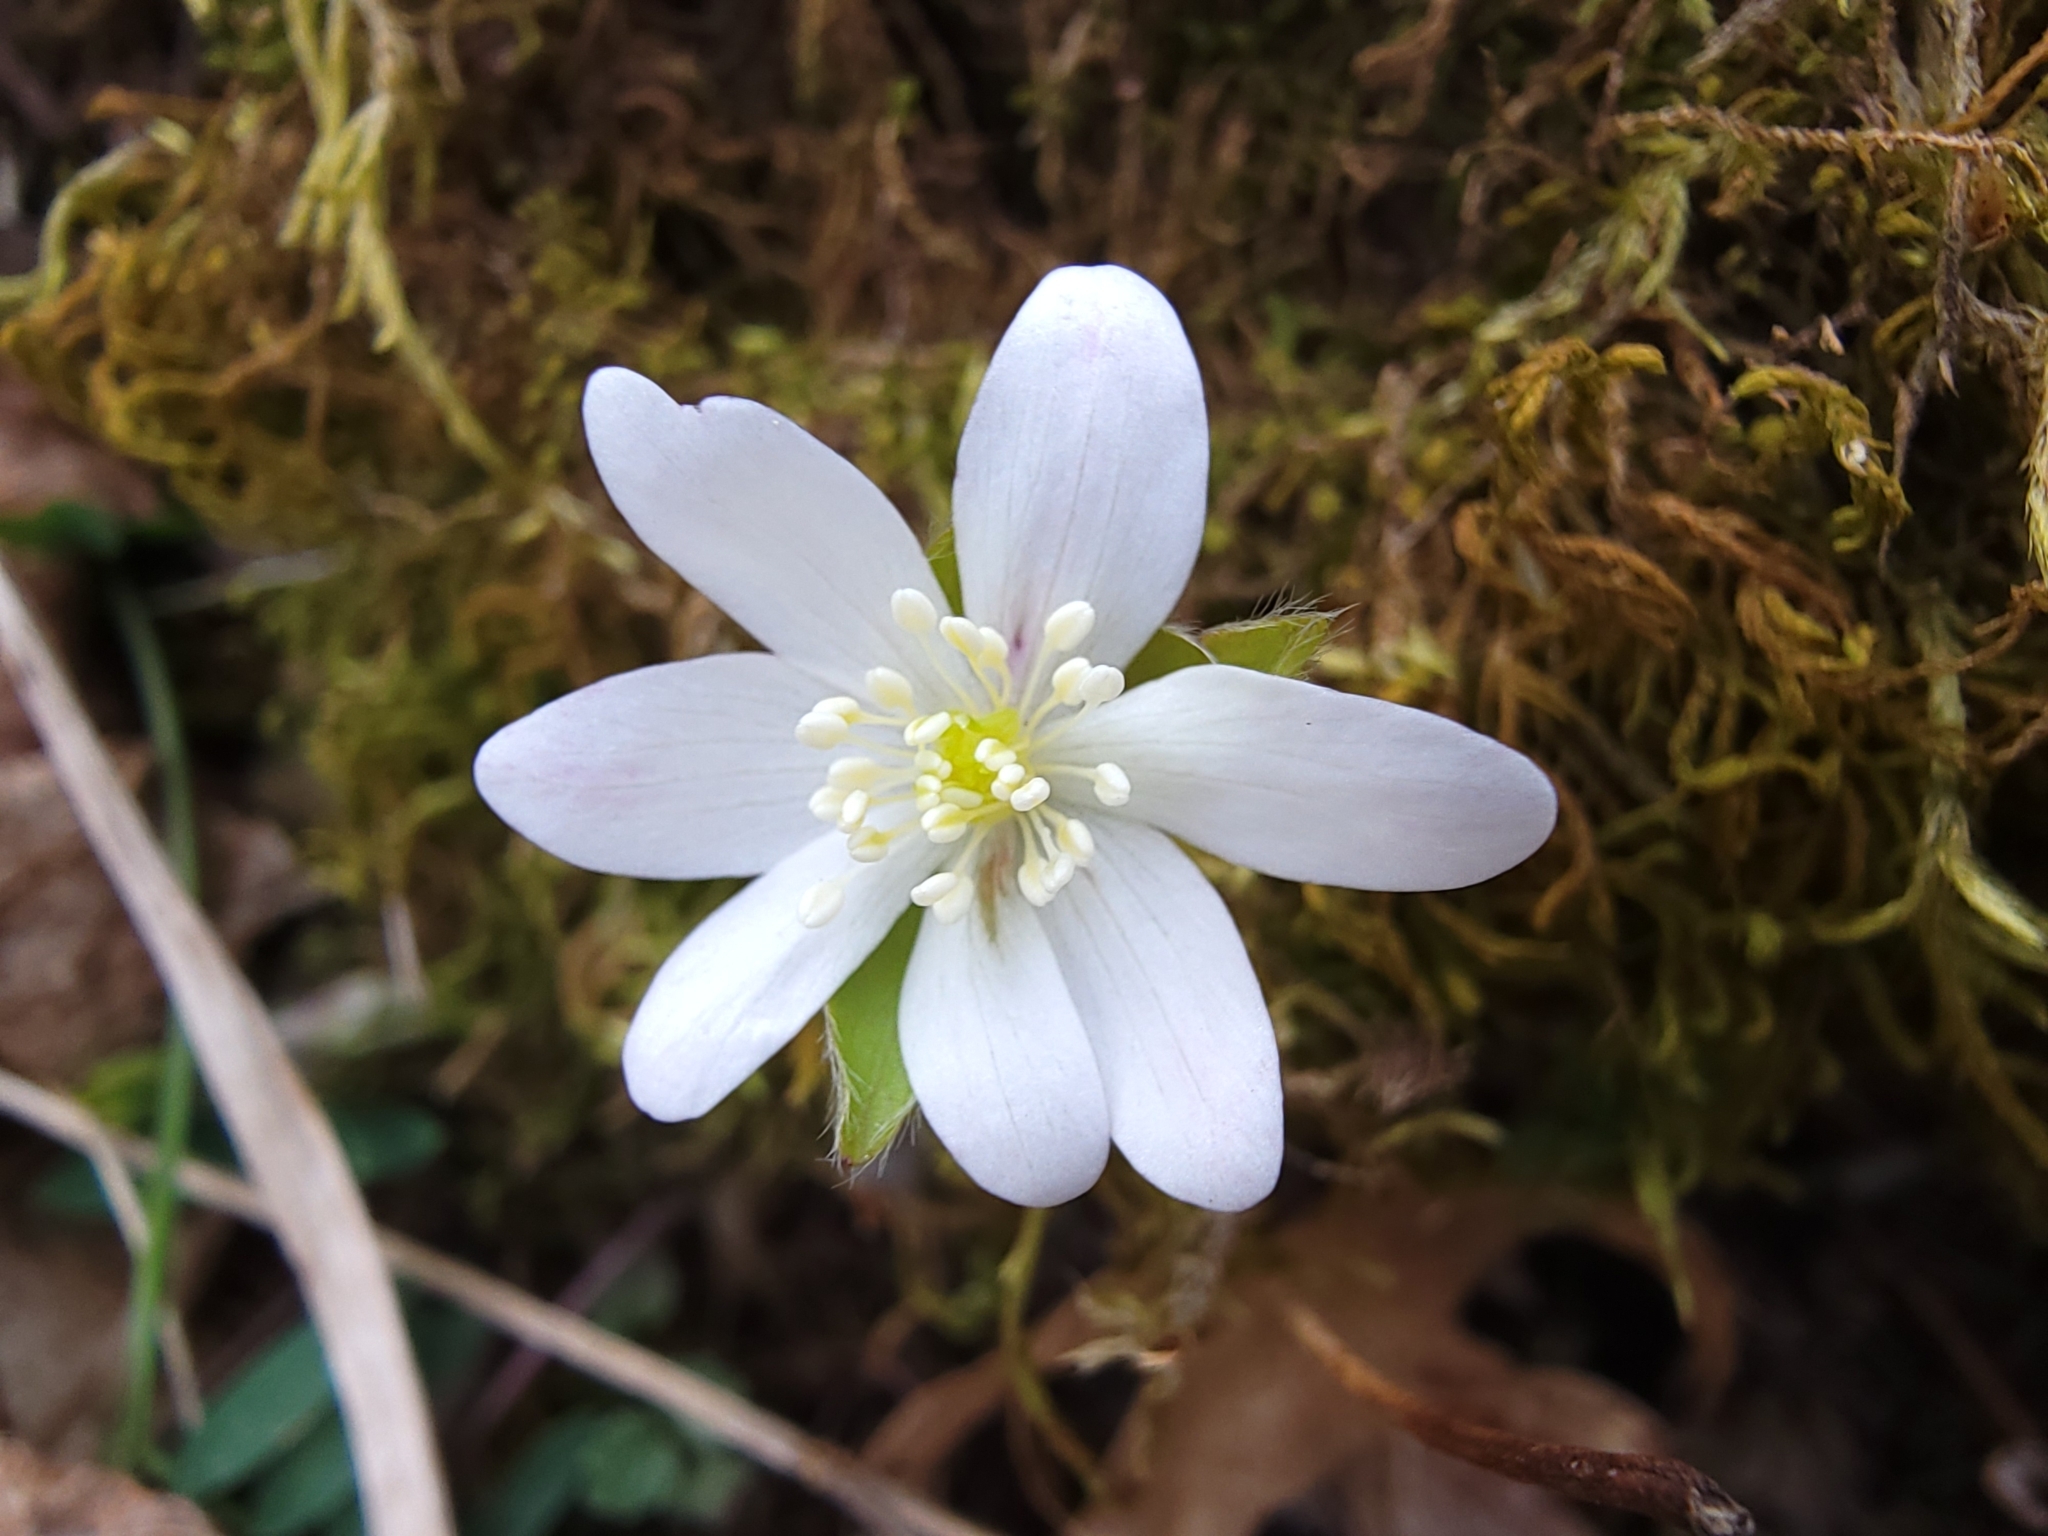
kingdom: Plantae
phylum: Tracheophyta
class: Magnoliopsida
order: Ranunculales
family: Ranunculaceae
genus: Hepatica
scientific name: Hepatica acutiloba
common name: Sharp-lobed hepatica
